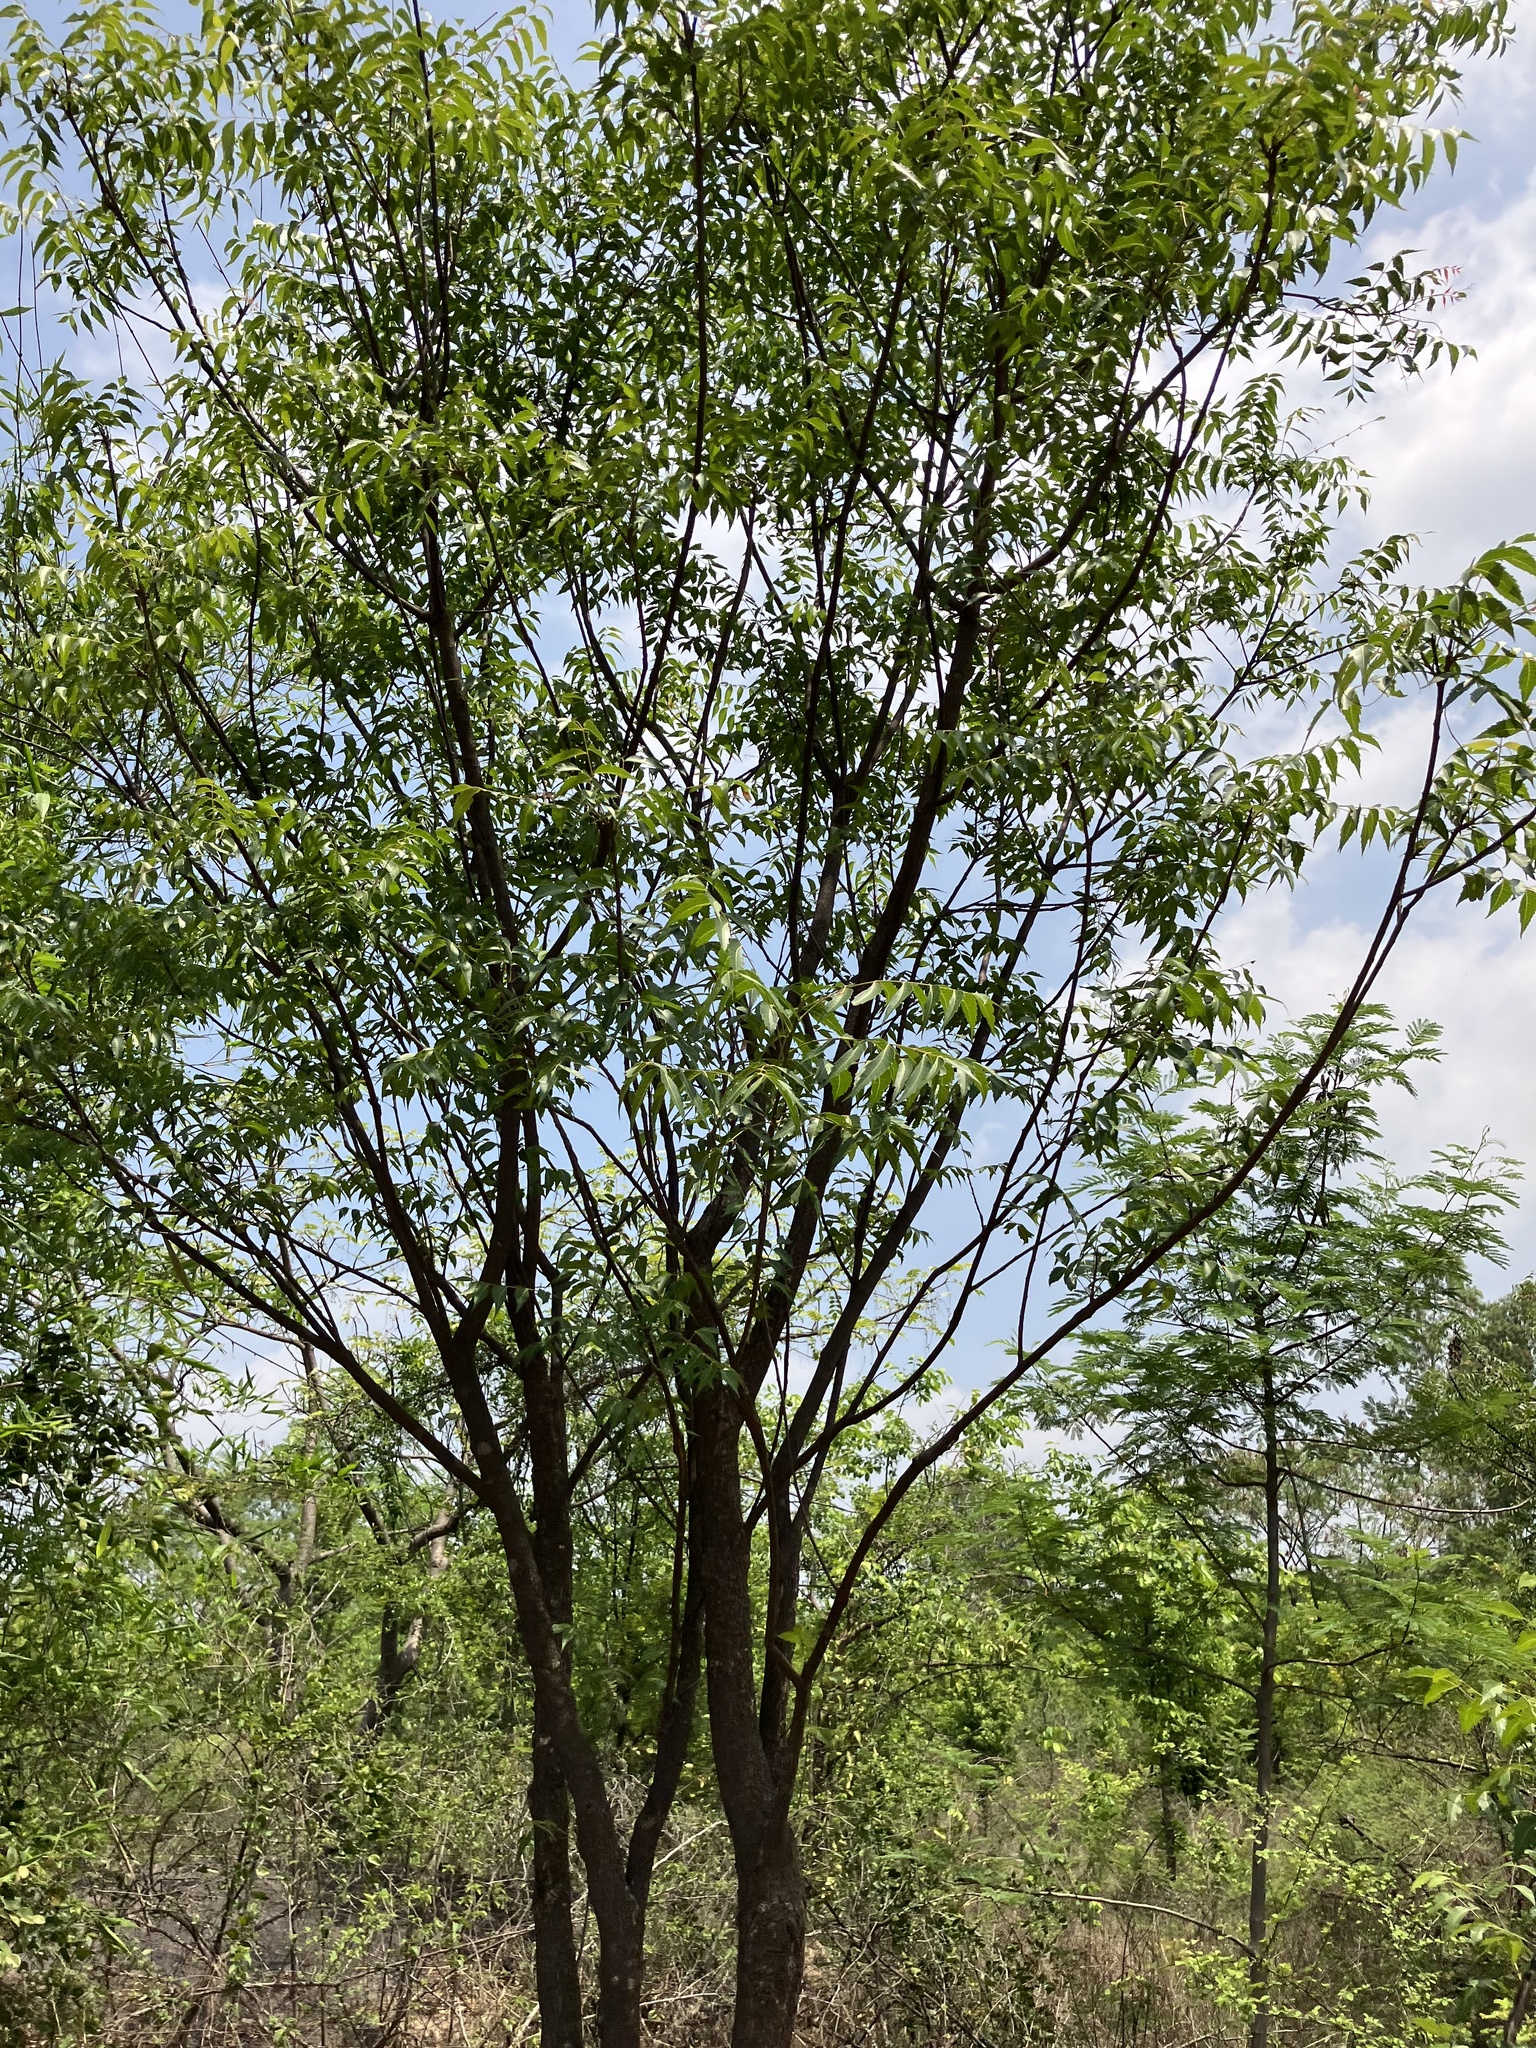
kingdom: Plantae
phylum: Tracheophyta
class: Magnoliopsida
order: Sapindales
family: Meliaceae
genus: Azadirachta
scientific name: Azadirachta indica
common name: Neem
